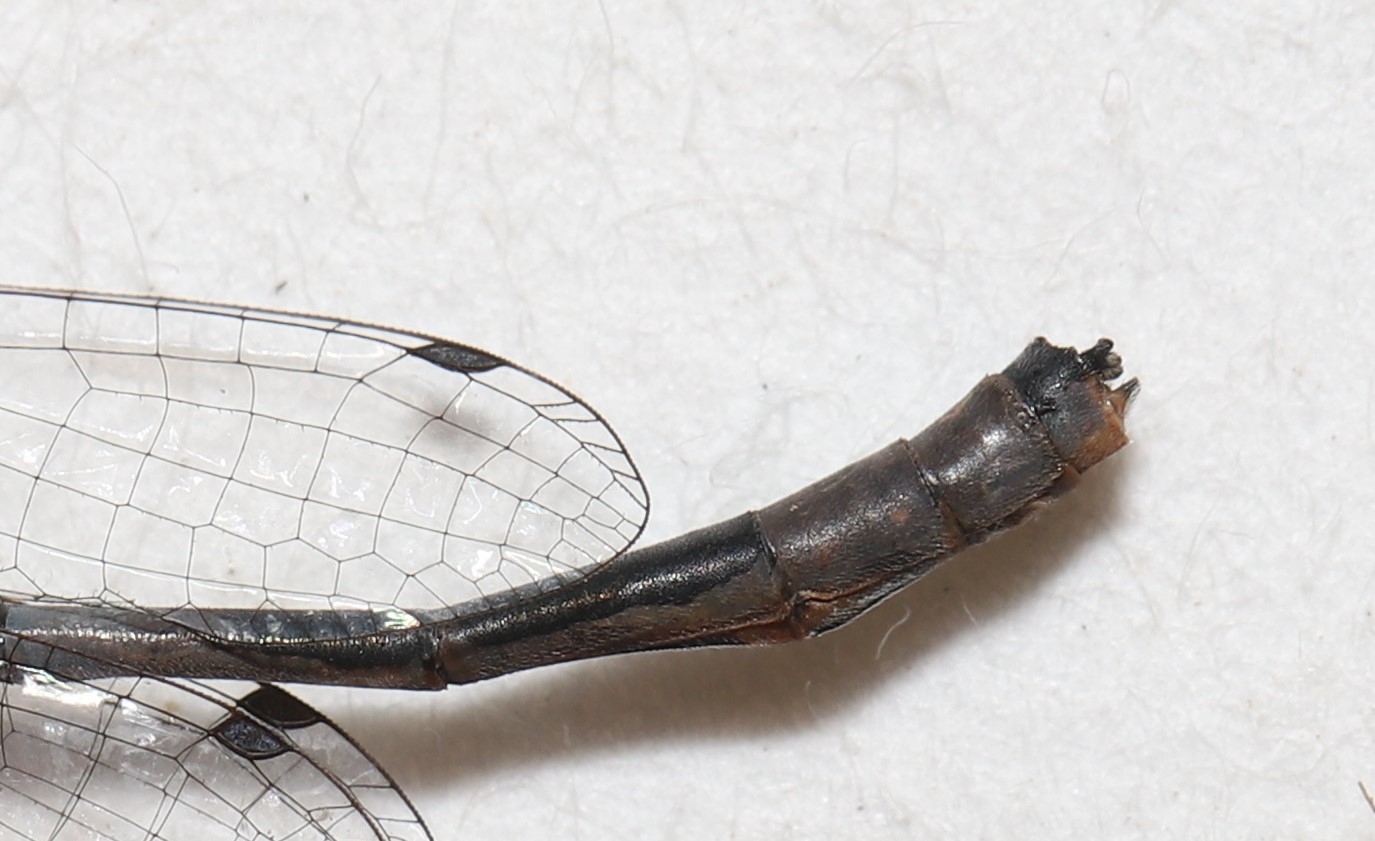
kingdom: Animalia
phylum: Arthropoda
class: Insecta
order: Odonata
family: Coenagrionidae
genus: Enallagma
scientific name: Enallagma ebrium
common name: Marsh bluet
